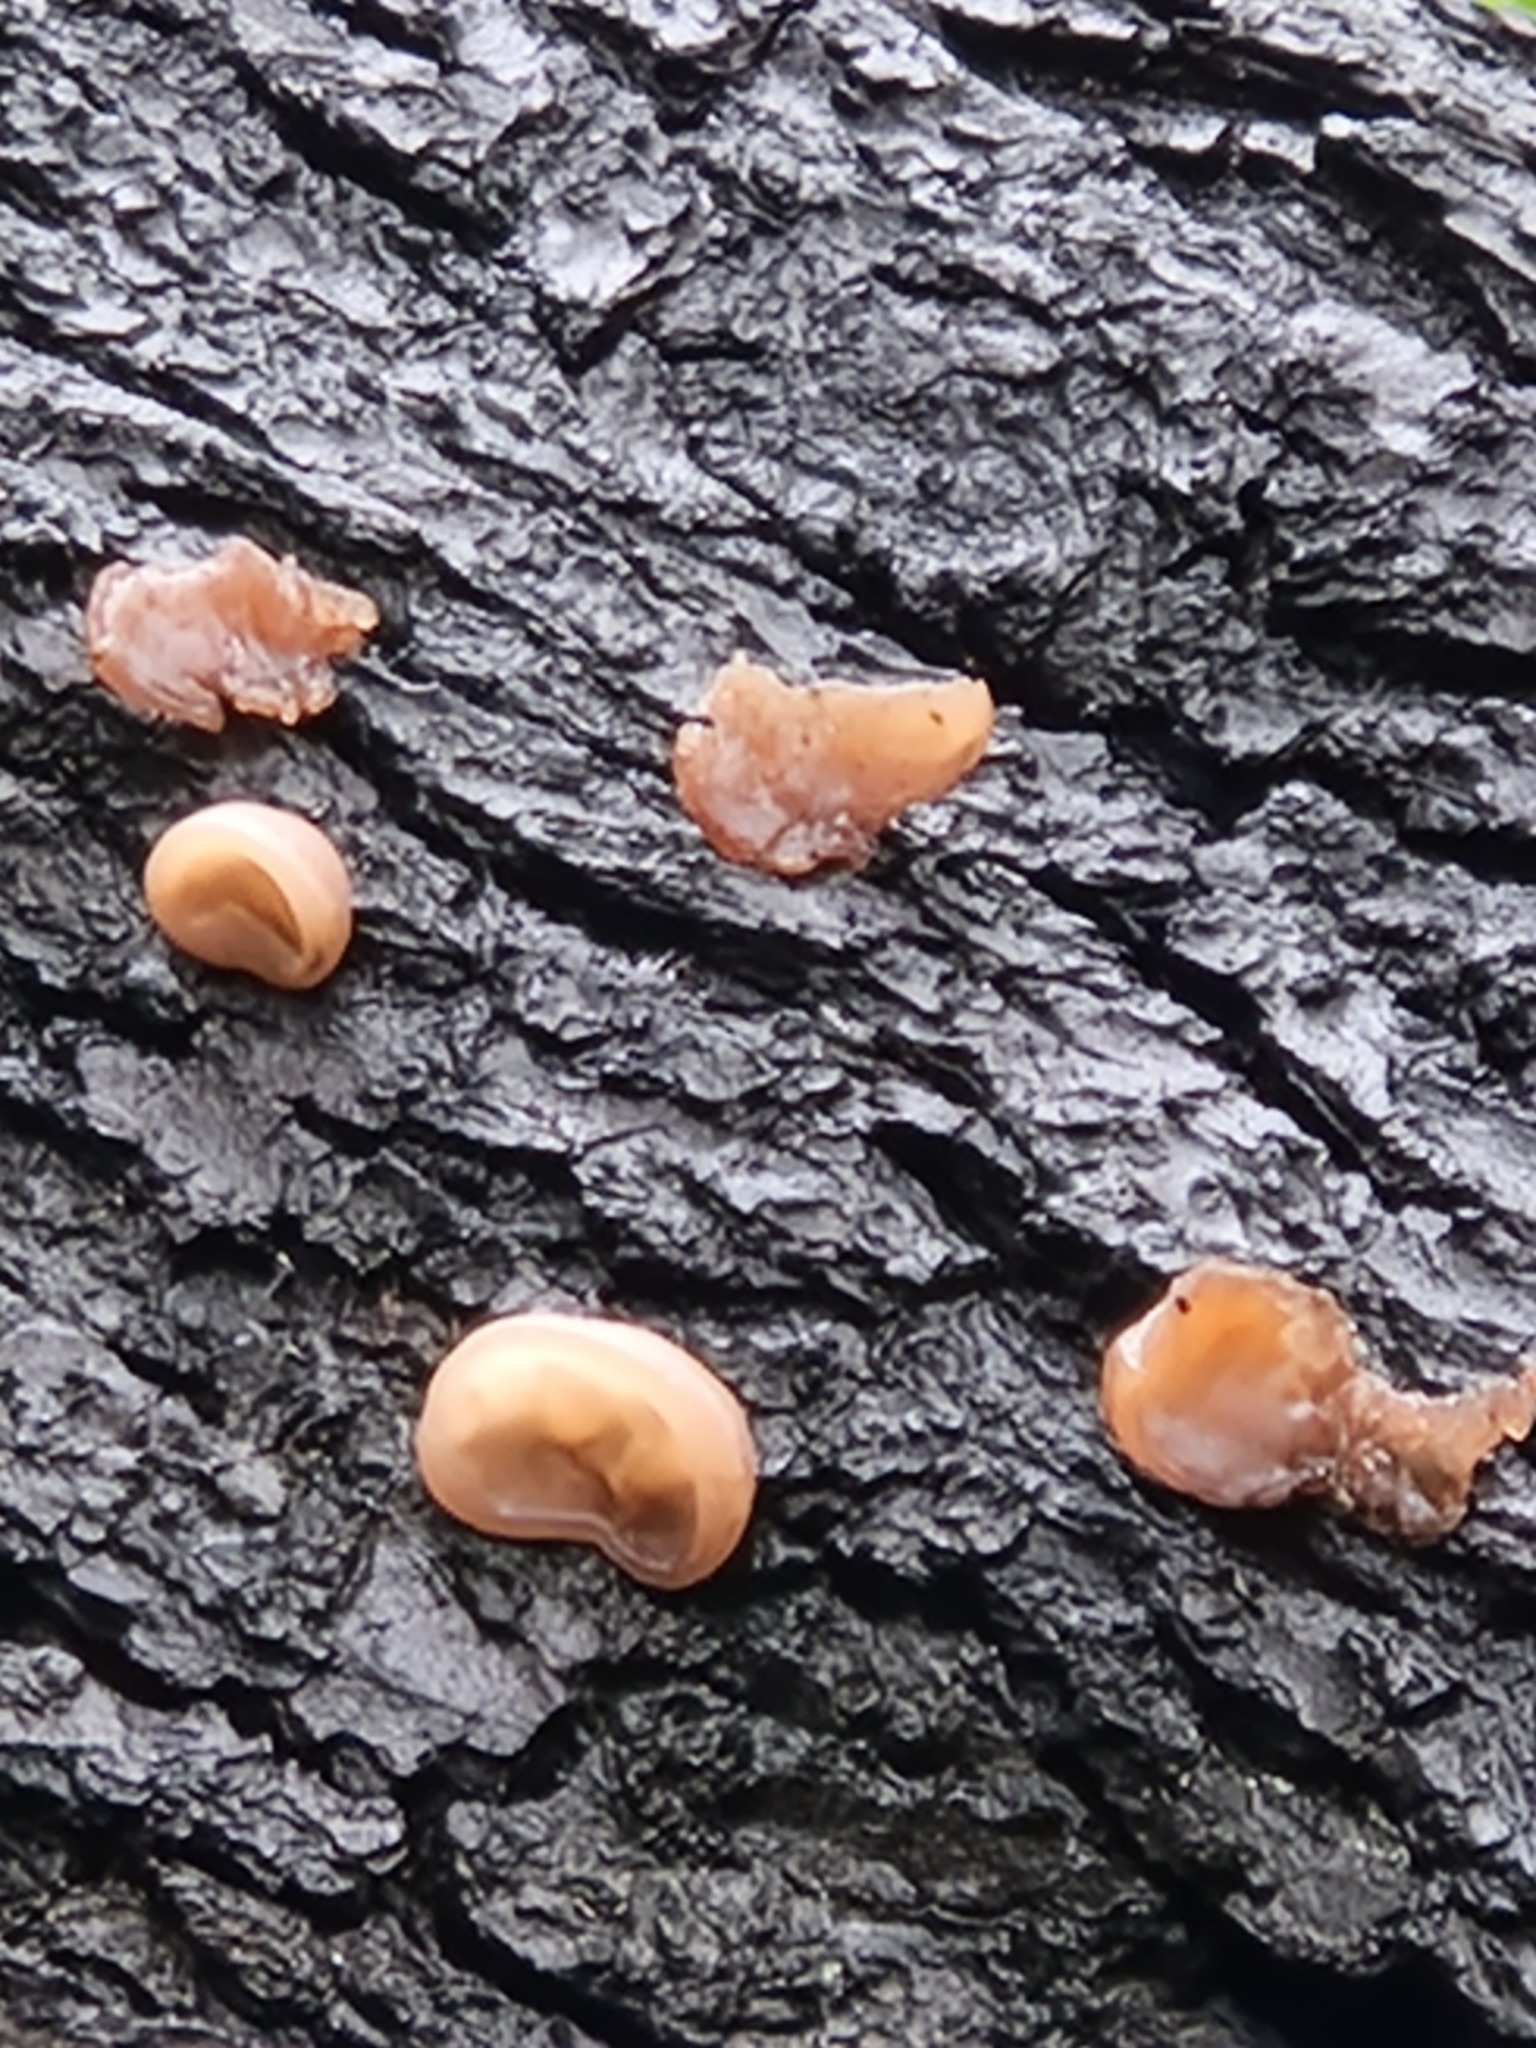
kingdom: Fungi
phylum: Basidiomycota
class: Agaricomycetes
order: Auriculariales
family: Auriculariaceae
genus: Auricularia
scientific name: Auricularia auricula-judae
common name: Jelly ear
